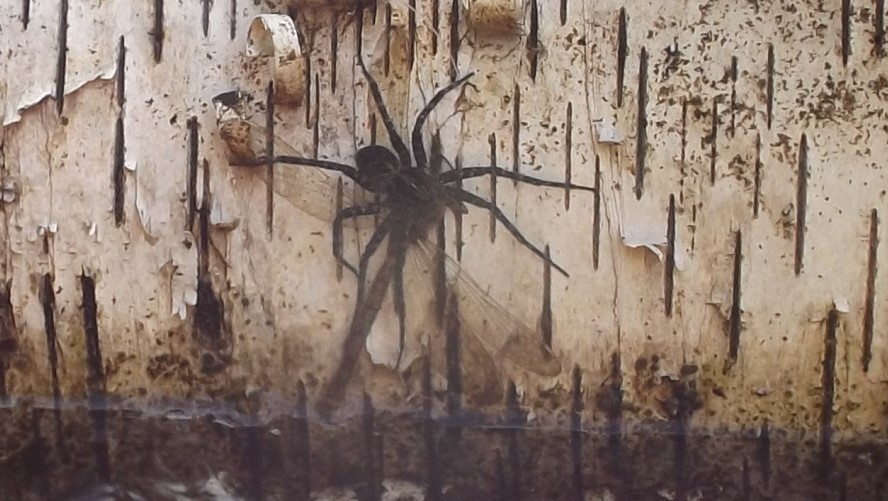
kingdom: Animalia
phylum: Arthropoda
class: Arachnida
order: Araneae
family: Pisauridae
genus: Dolomedes
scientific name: Dolomedes tenebrosus
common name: Dark fishing spider
